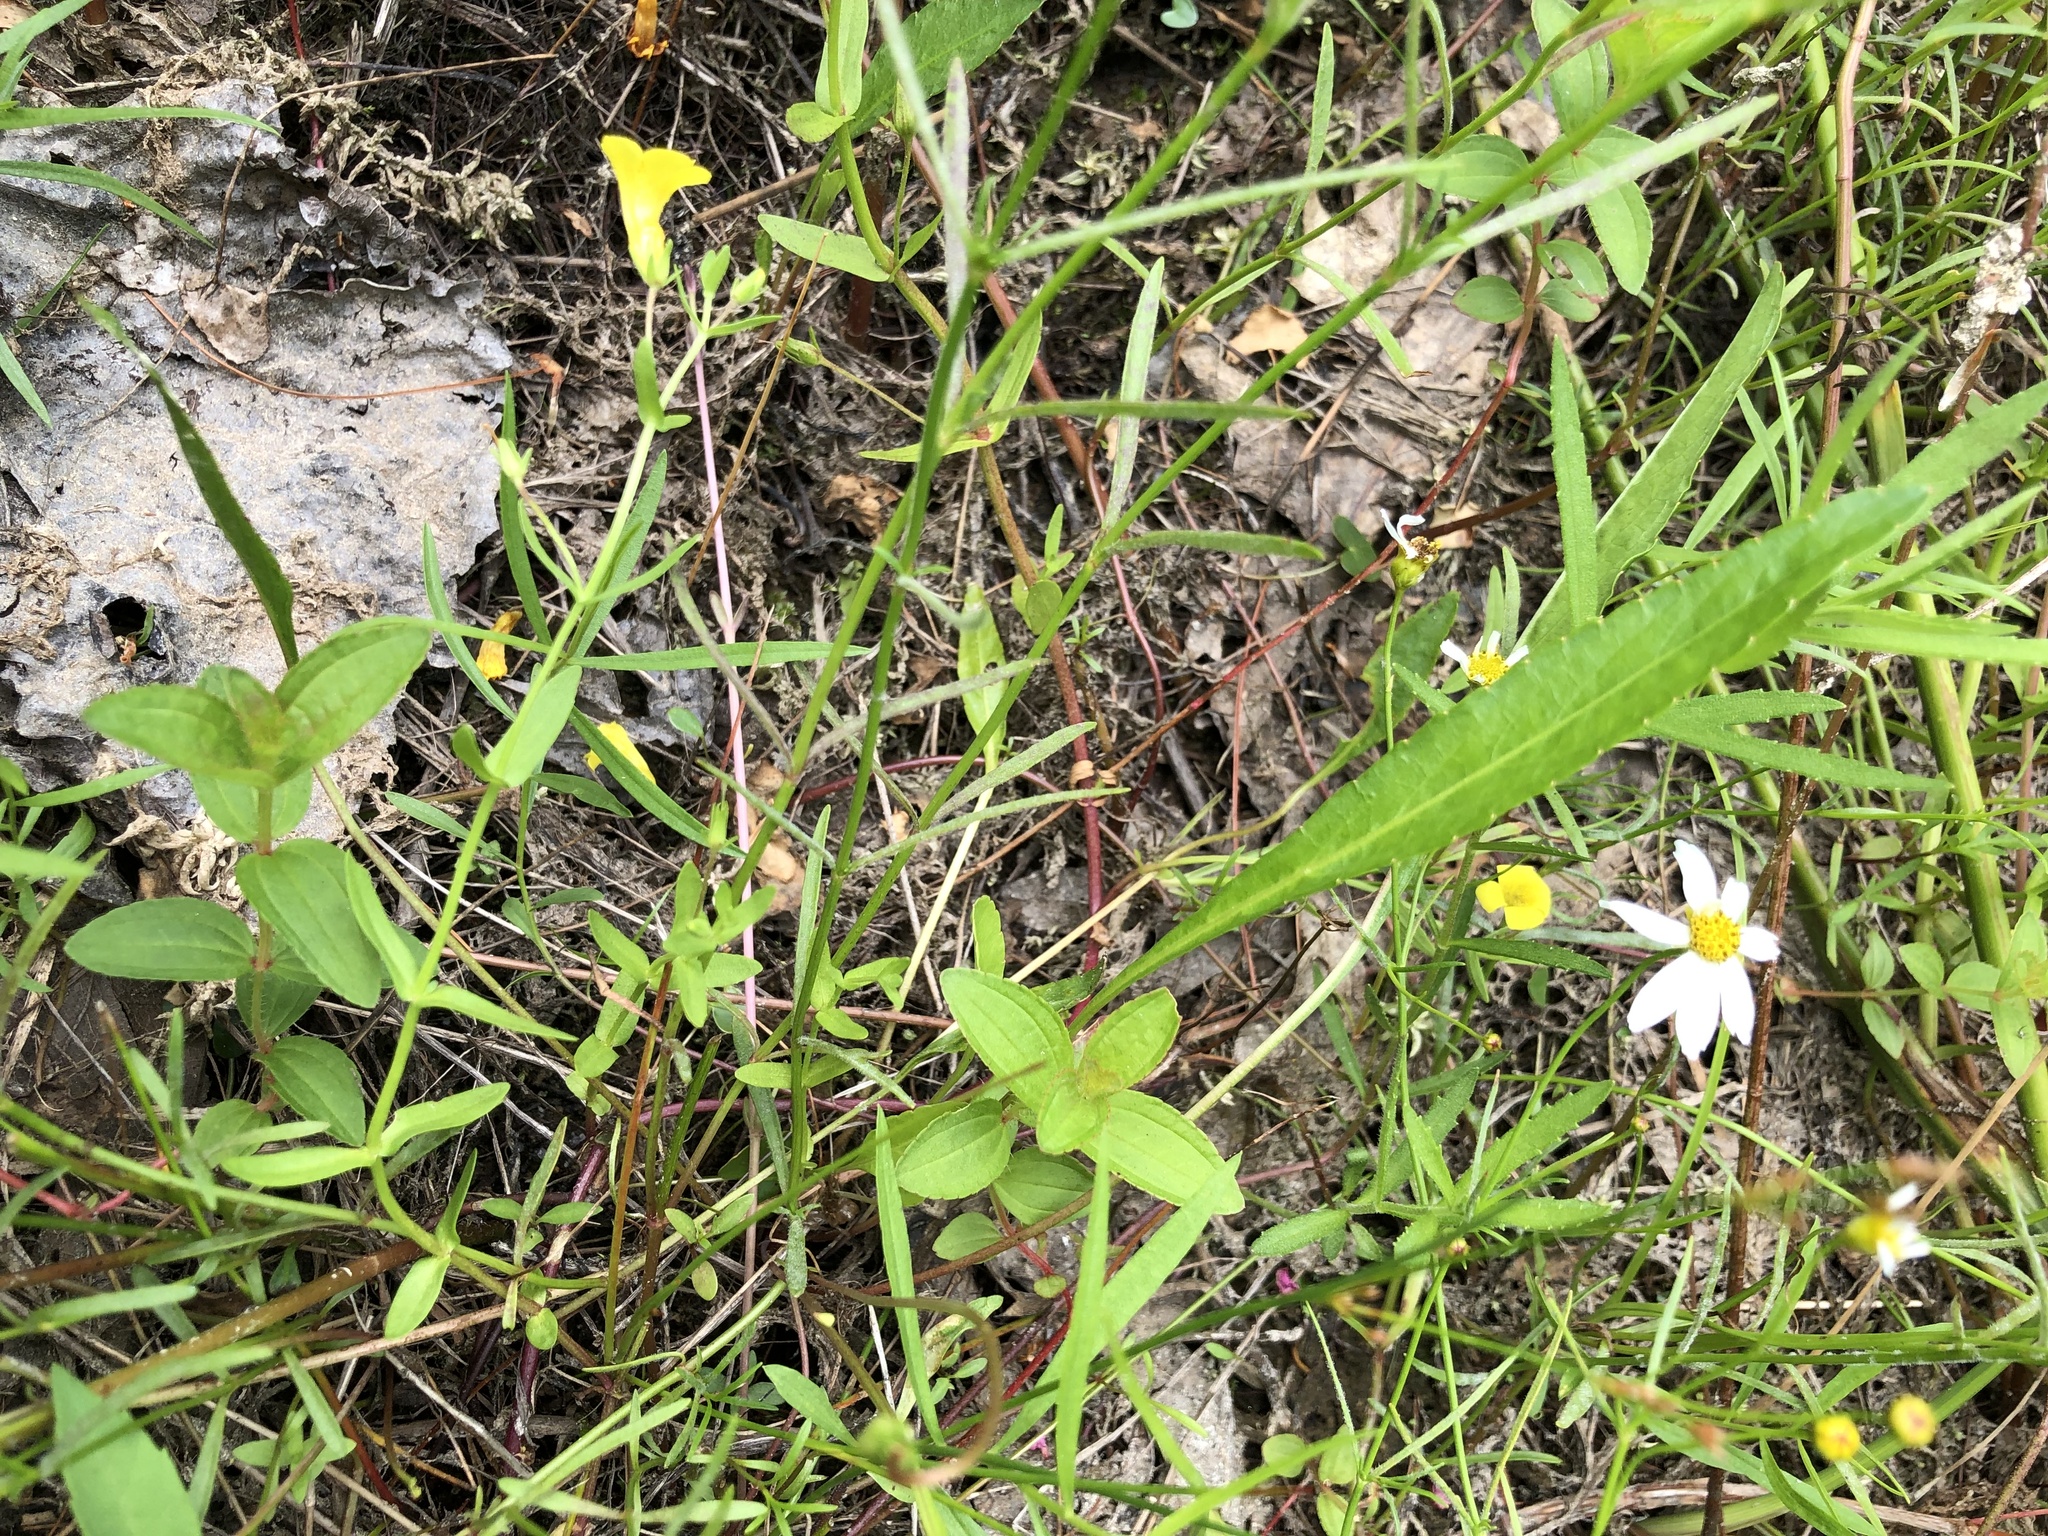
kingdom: Plantae
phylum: Tracheophyta
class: Magnoliopsida
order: Lamiales
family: Plantaginaceae
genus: Gratiola
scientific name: Gratiola lutea
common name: Golden hedge-hyssop
